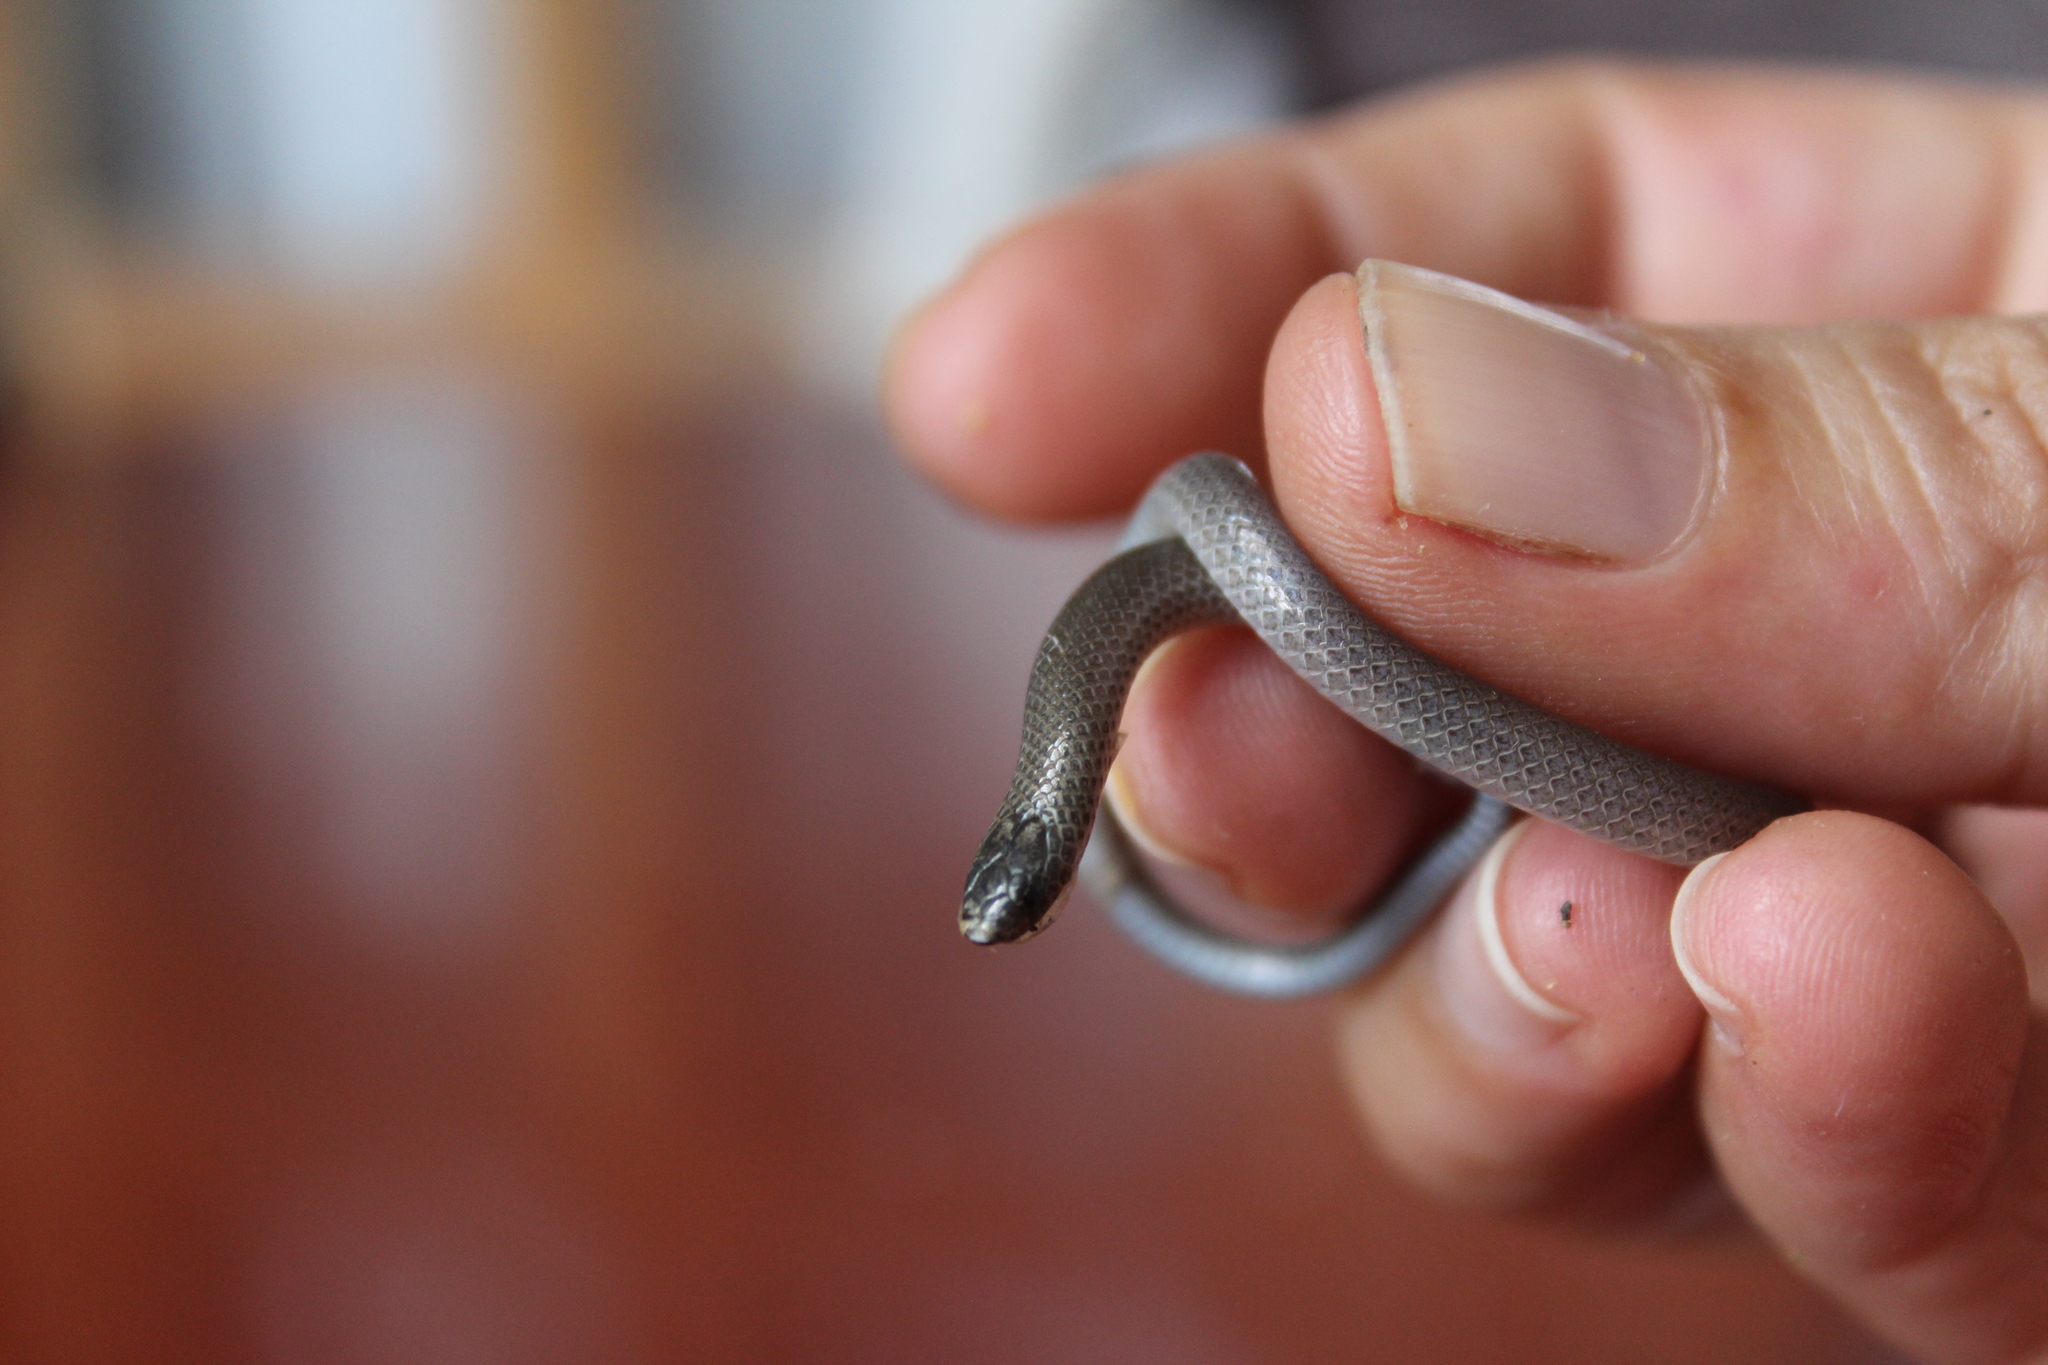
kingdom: Animalia
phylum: Chordata
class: Squamata
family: Colubridae
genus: Tantillita
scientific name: Tantillita lintoni
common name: Brown dwarf short-tailed snake
